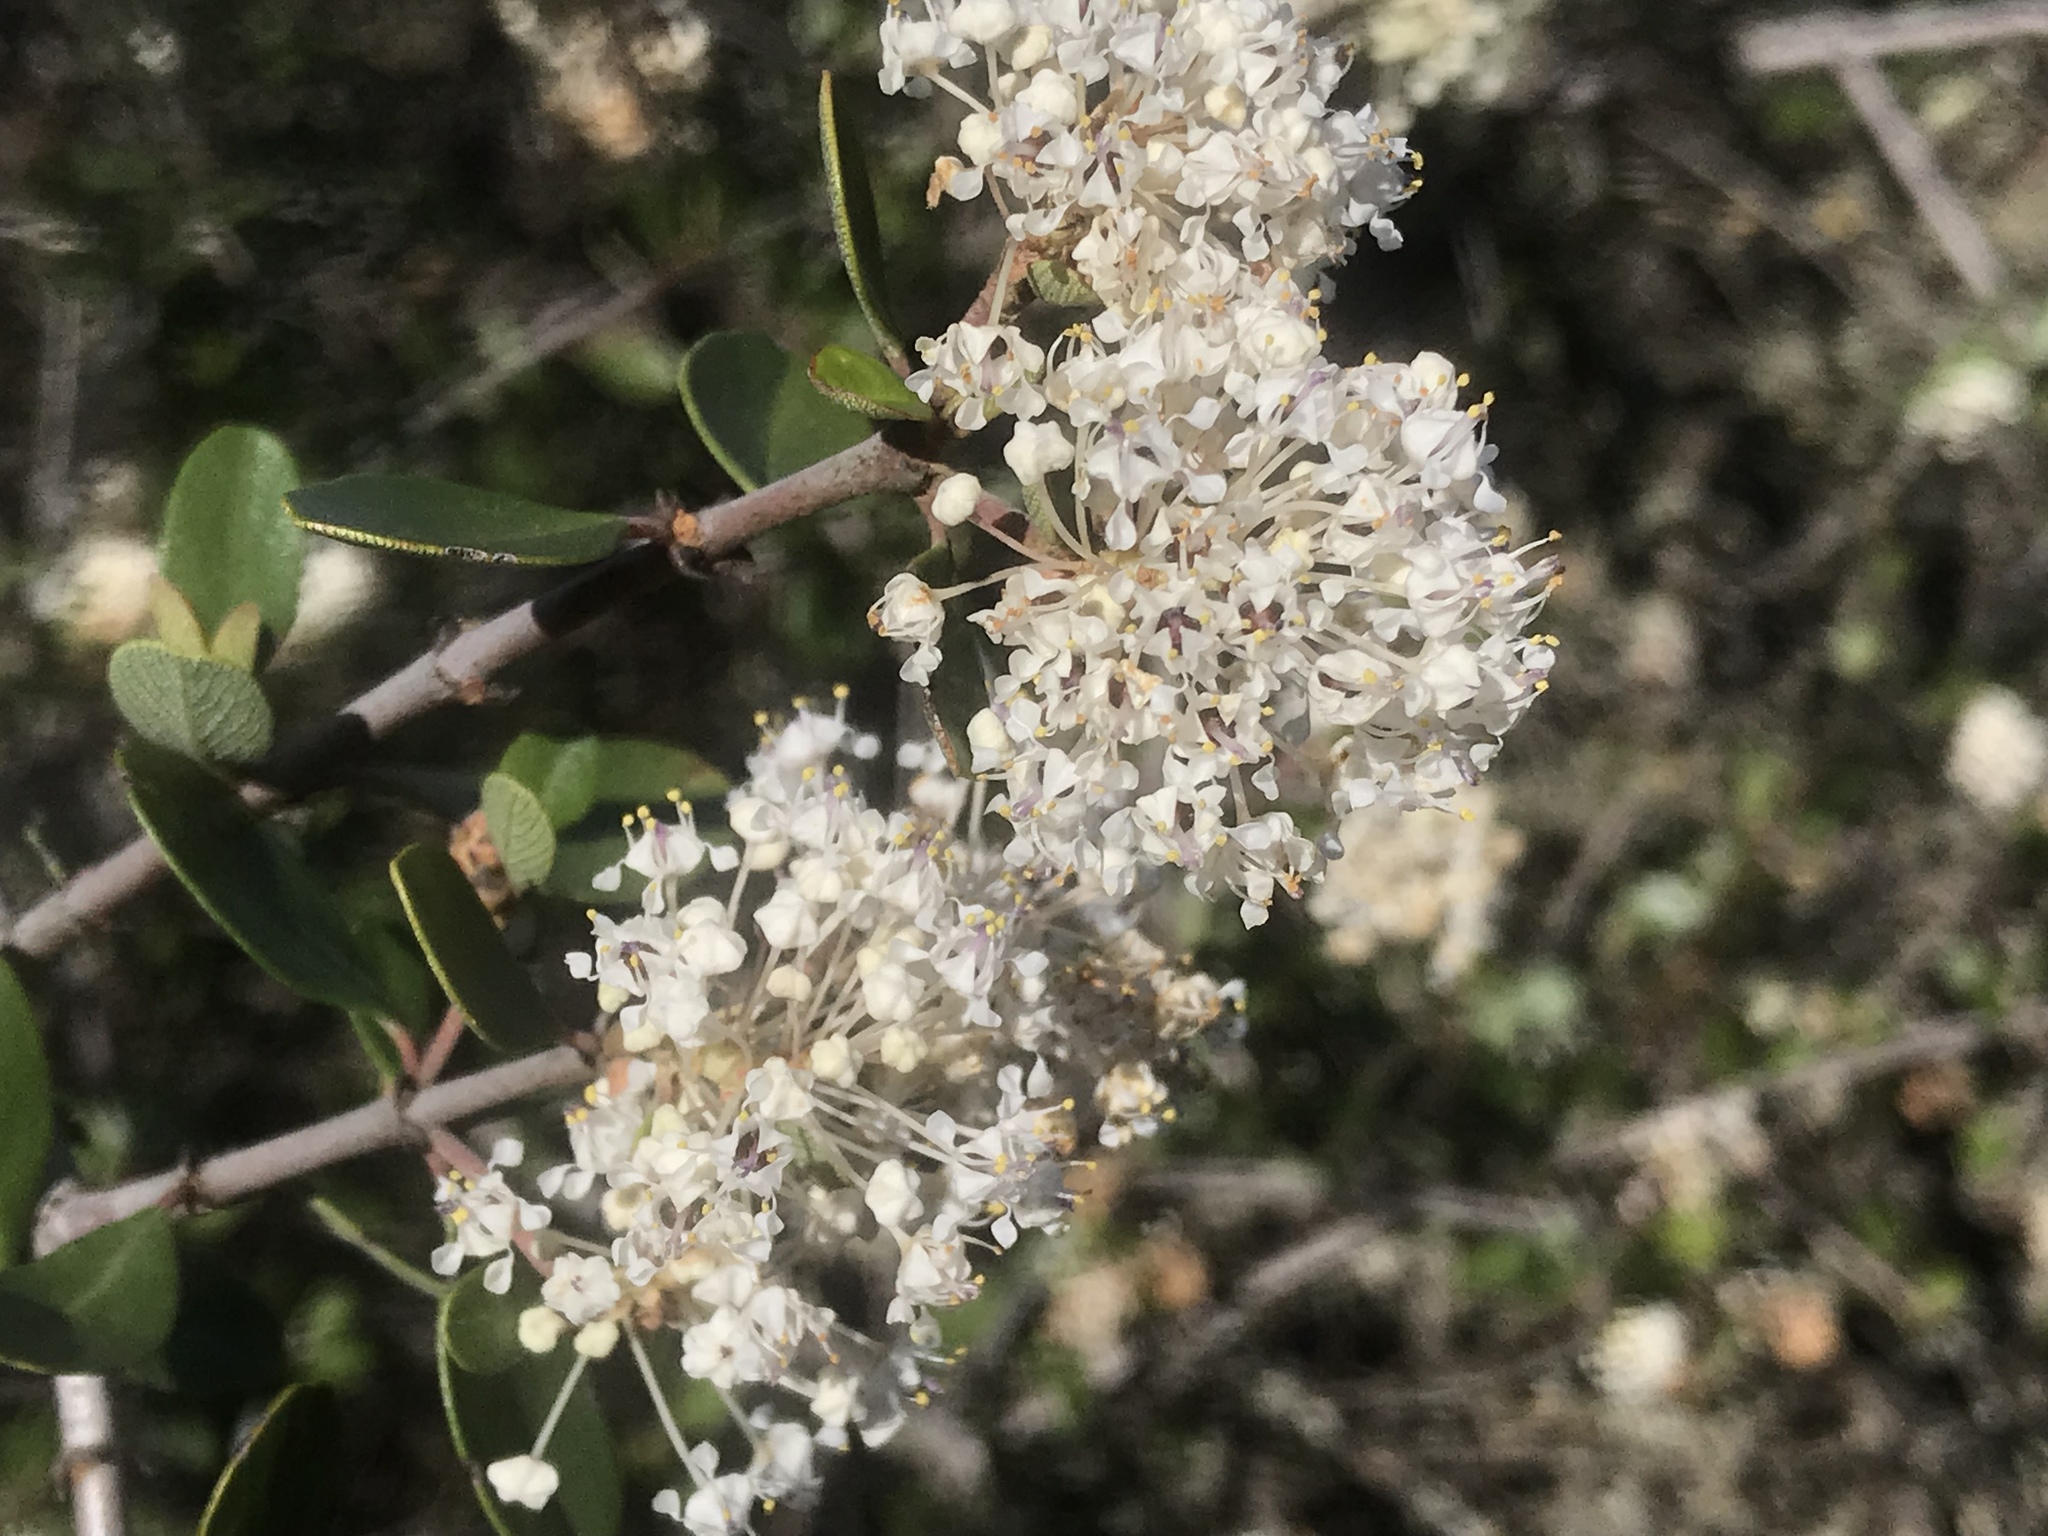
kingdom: Plantae
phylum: Tracheophyta
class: Magnoliopsida
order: Rosales
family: Rhamnaceae
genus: Ceanothus
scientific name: Ceanothus cuneatus
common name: Cuneate ceanothus
